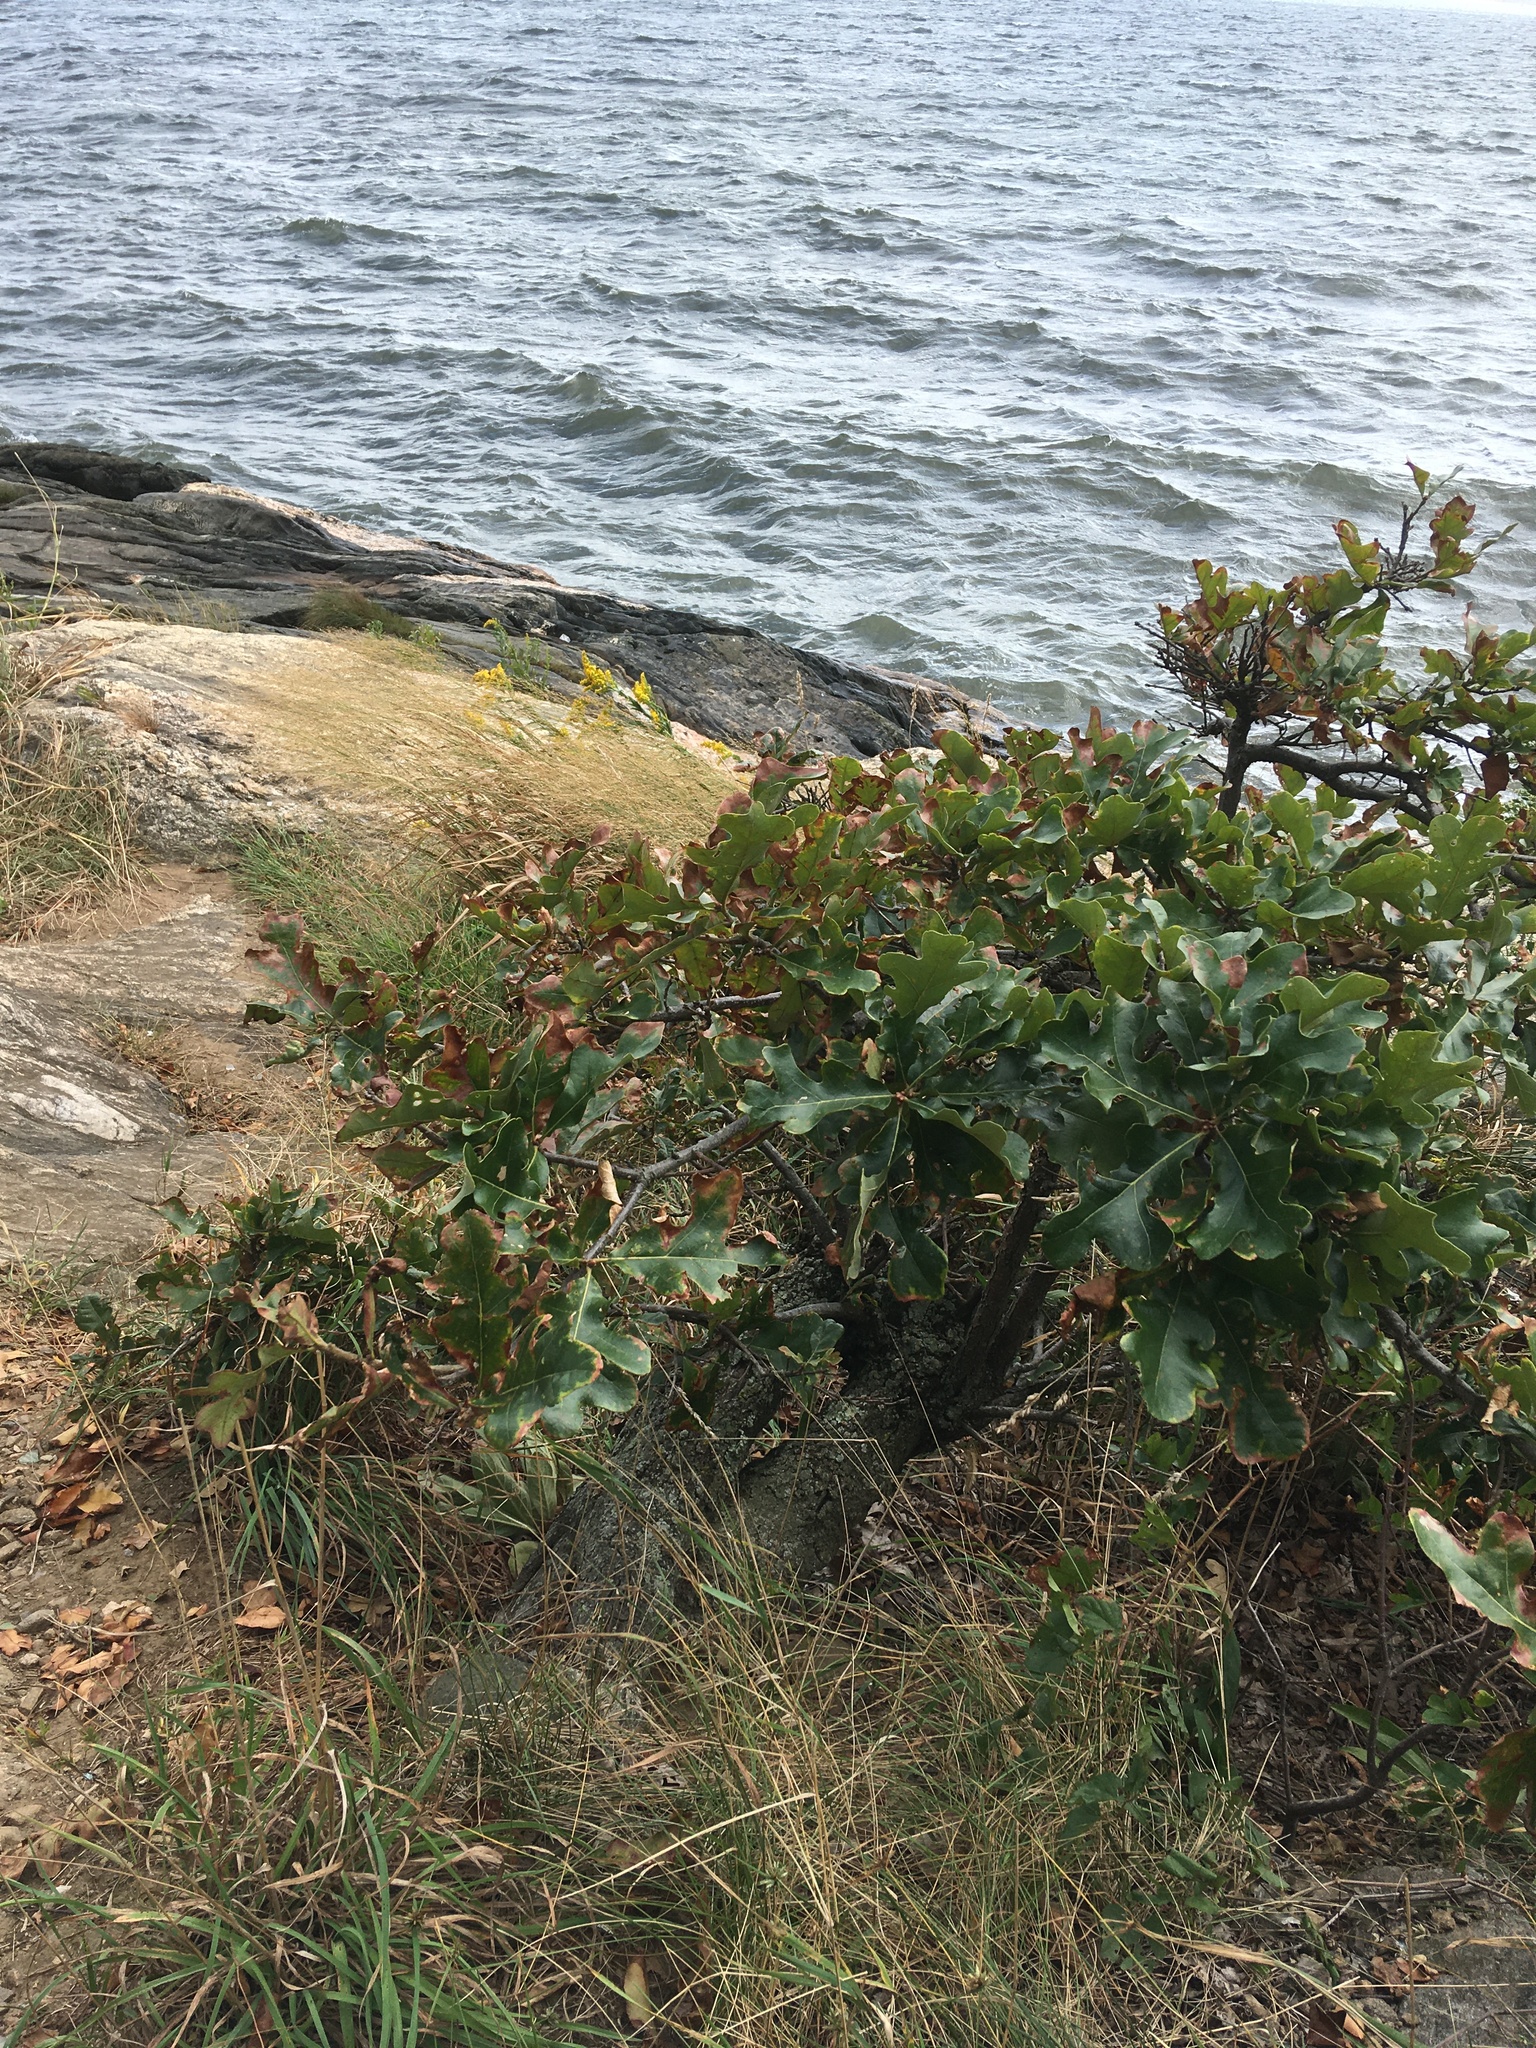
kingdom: Plantae
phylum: Tracheophyta
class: Magnoliopsida
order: Fagales
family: Fagaceae
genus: Quercus
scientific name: Quercus stellata
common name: Post oak
